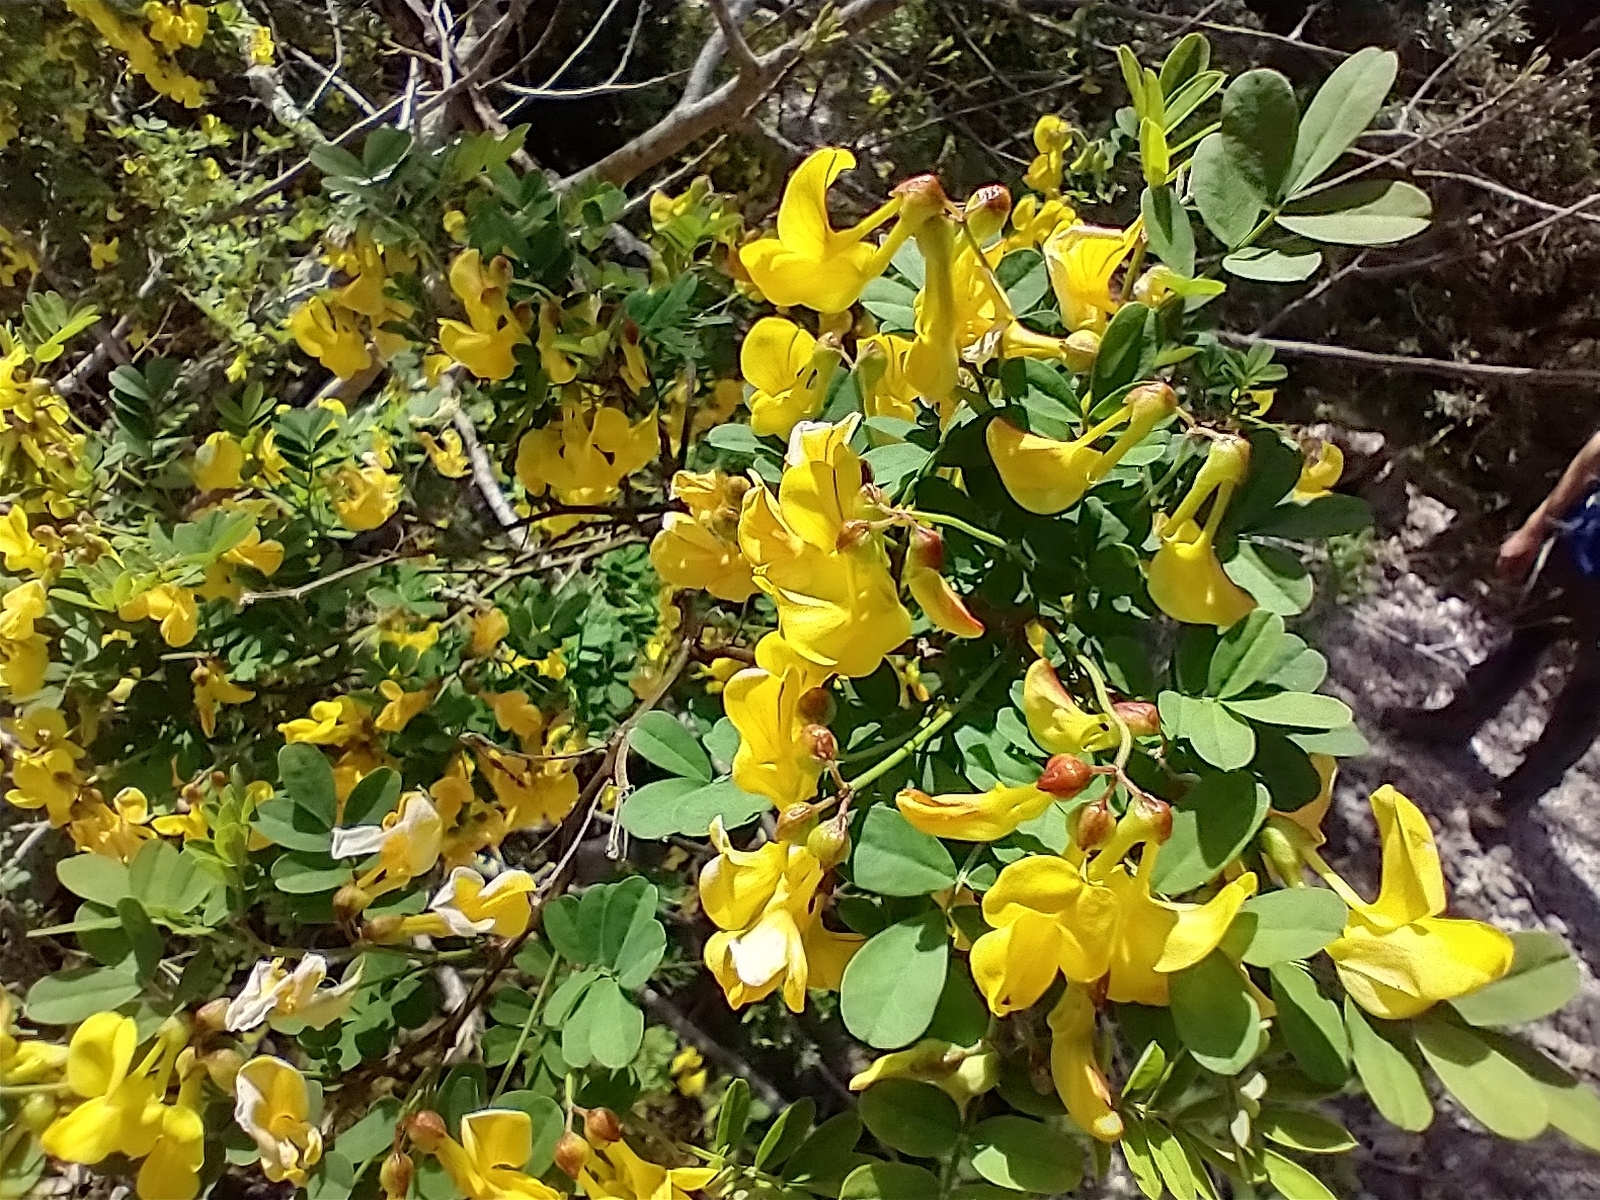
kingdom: Plantae
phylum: Tracheophyta
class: Magnoliopsida
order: Fabales
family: Fabaceae
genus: Hippocrepis
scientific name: Hippocrepis emerus
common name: Scorpion senna
